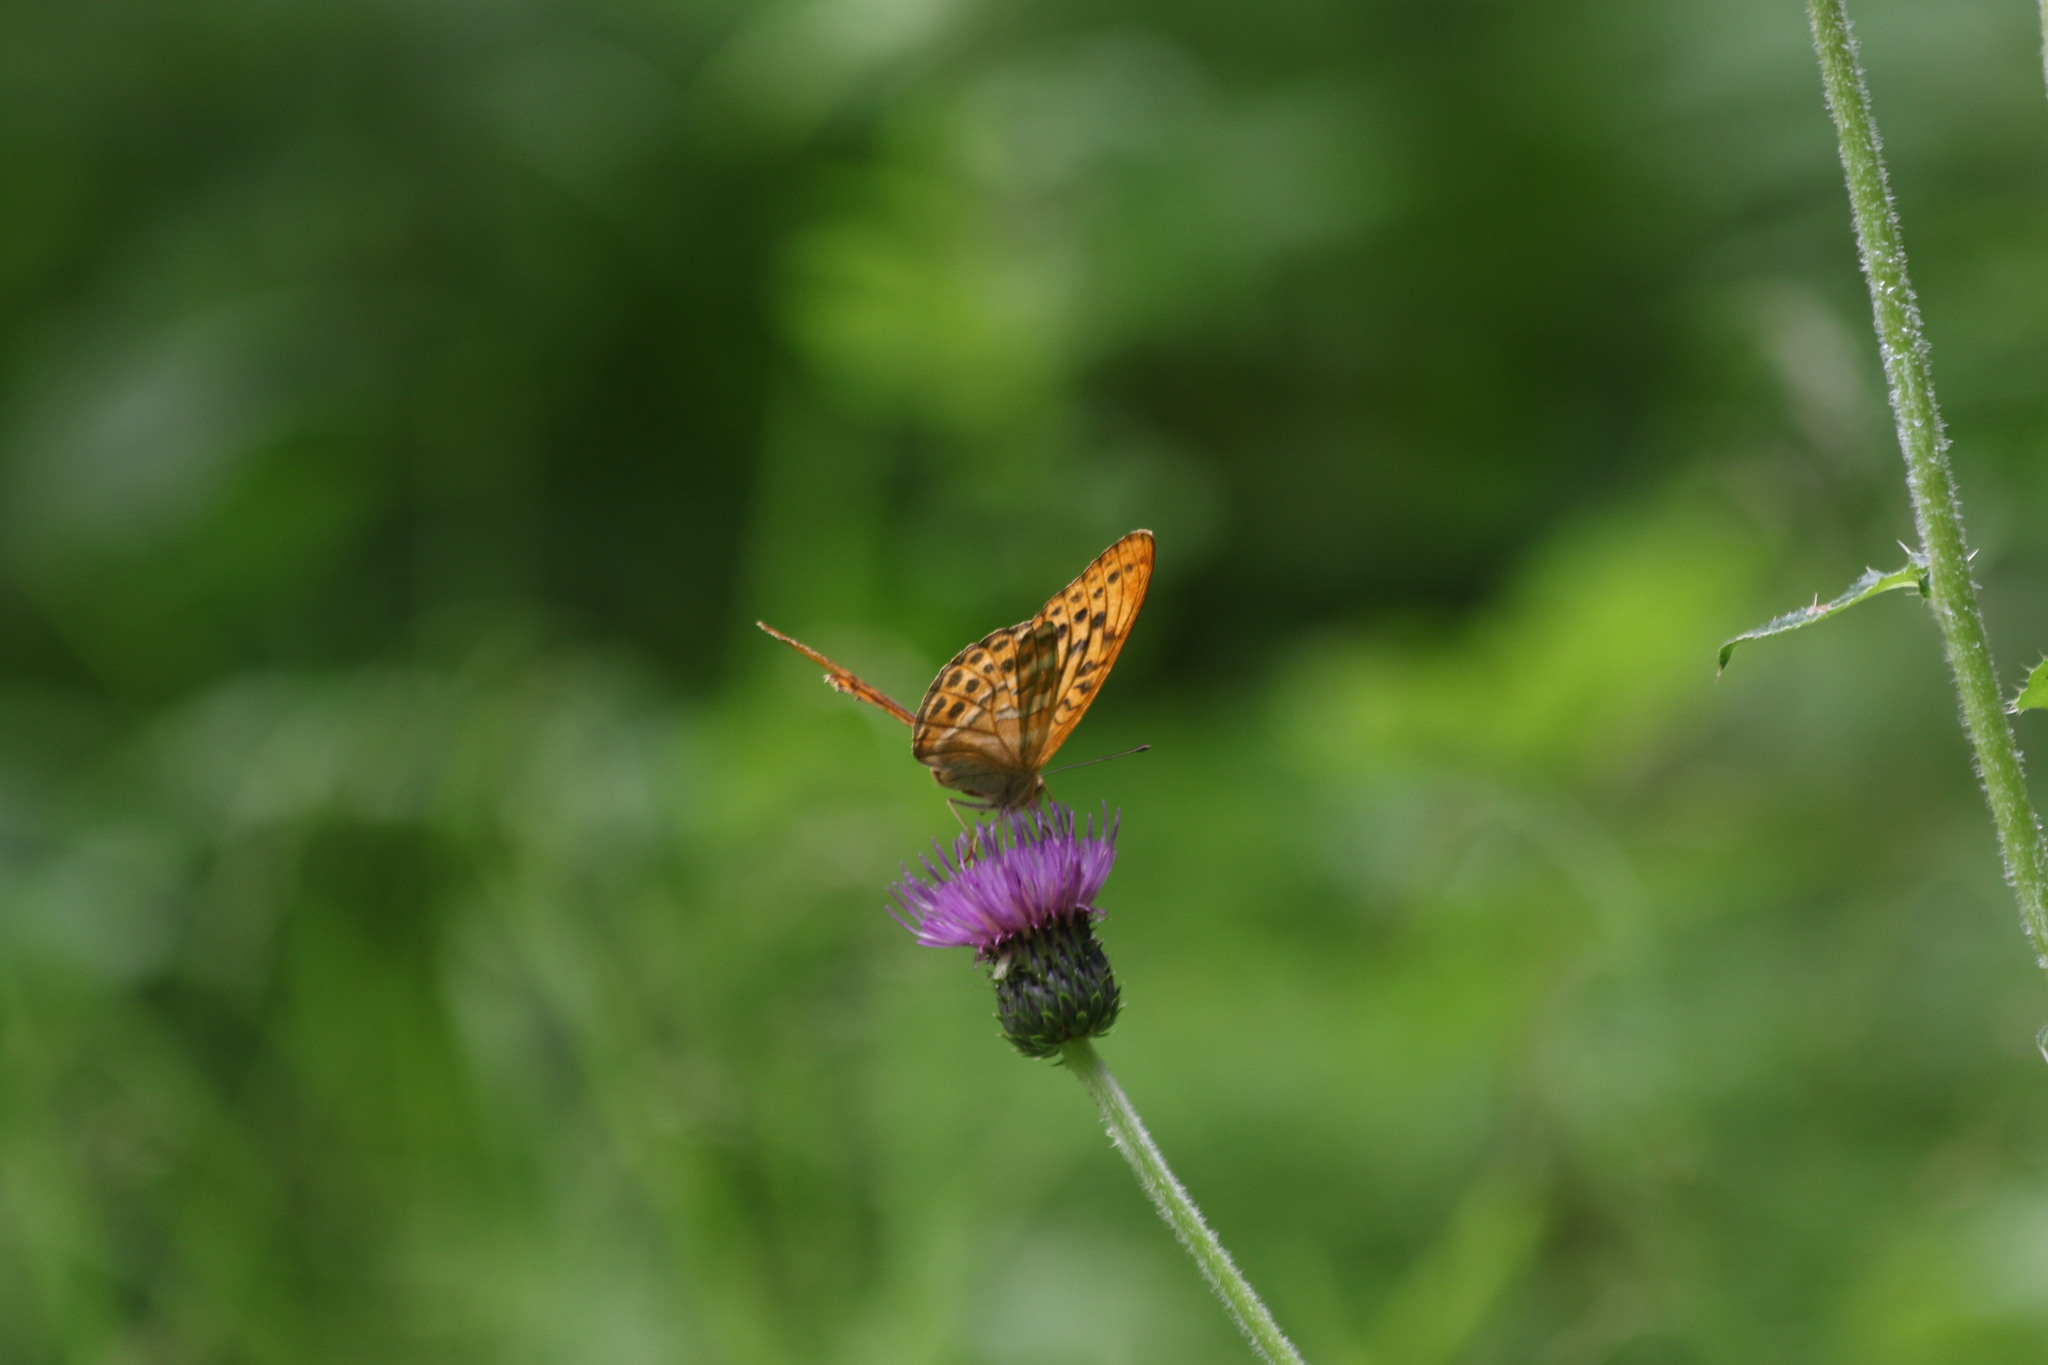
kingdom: Animalia
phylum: Arthropoda
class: Insecta
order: Lepidoptera
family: Nymphalidae
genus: Argynnis
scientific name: Argynnis paphia
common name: Silver-washed fritillary
